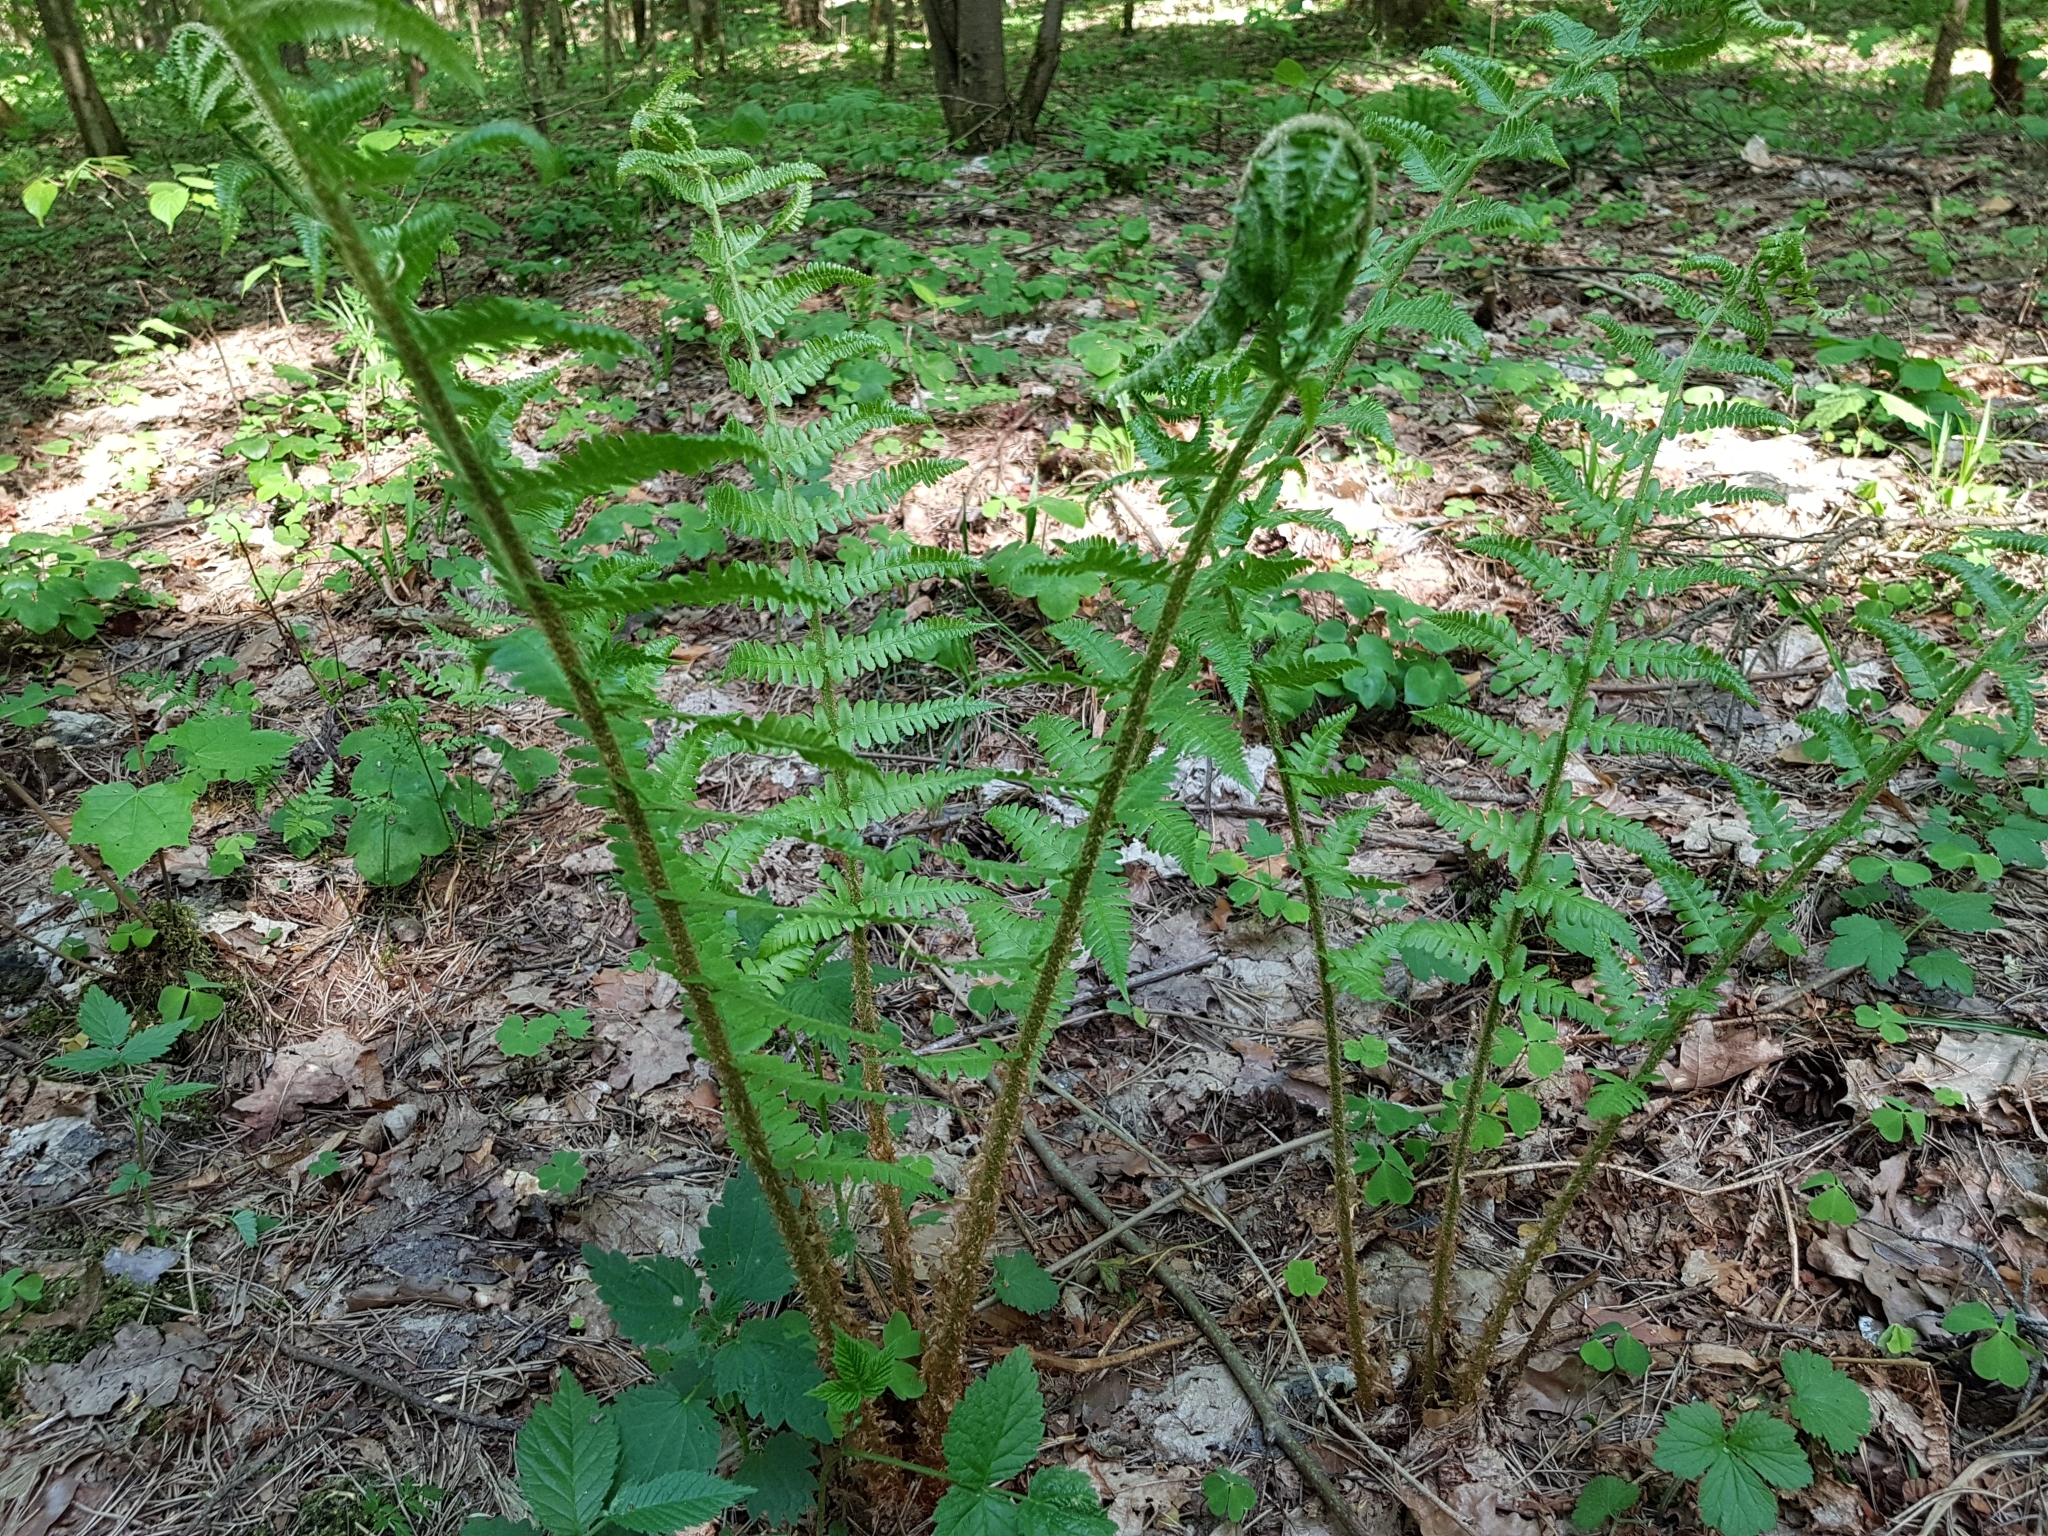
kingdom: Plantae
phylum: Tracheophyta
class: Polypodiopsida
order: Polypodiales
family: Dryopteridaceae
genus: Dryopteris
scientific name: Dryopteris filix-mas
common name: Male fern
